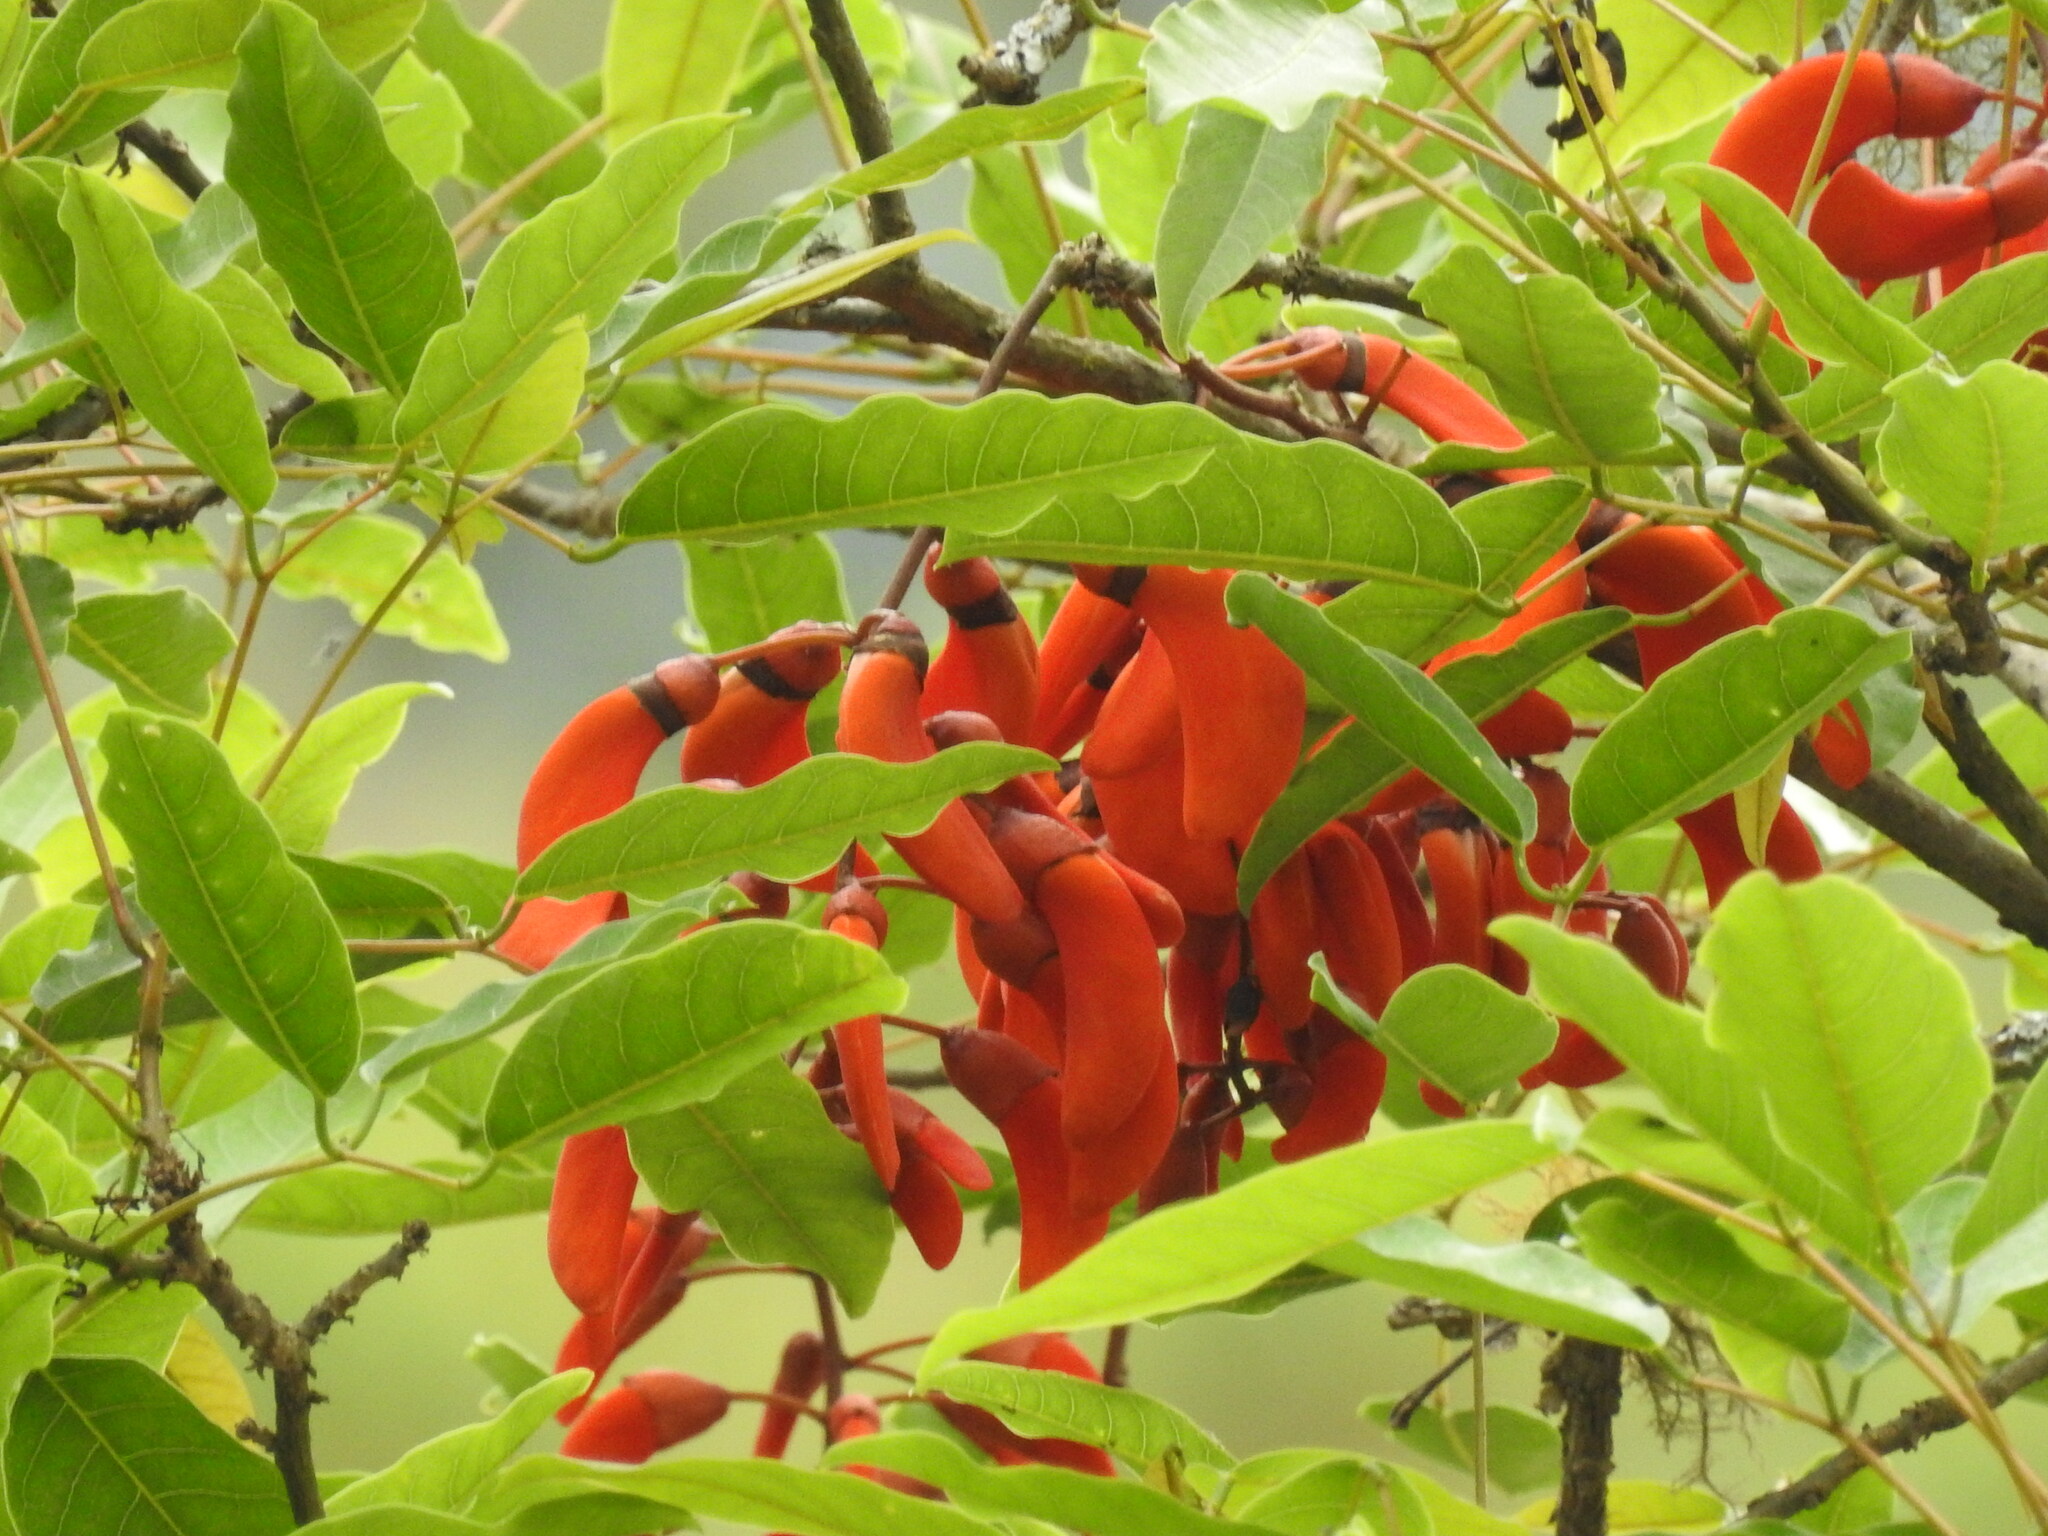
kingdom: Plantae
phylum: Tracheophyta
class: Magnoliopsida
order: Fabales
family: Fabaceae
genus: Erythrina
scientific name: Erythrina falcata
